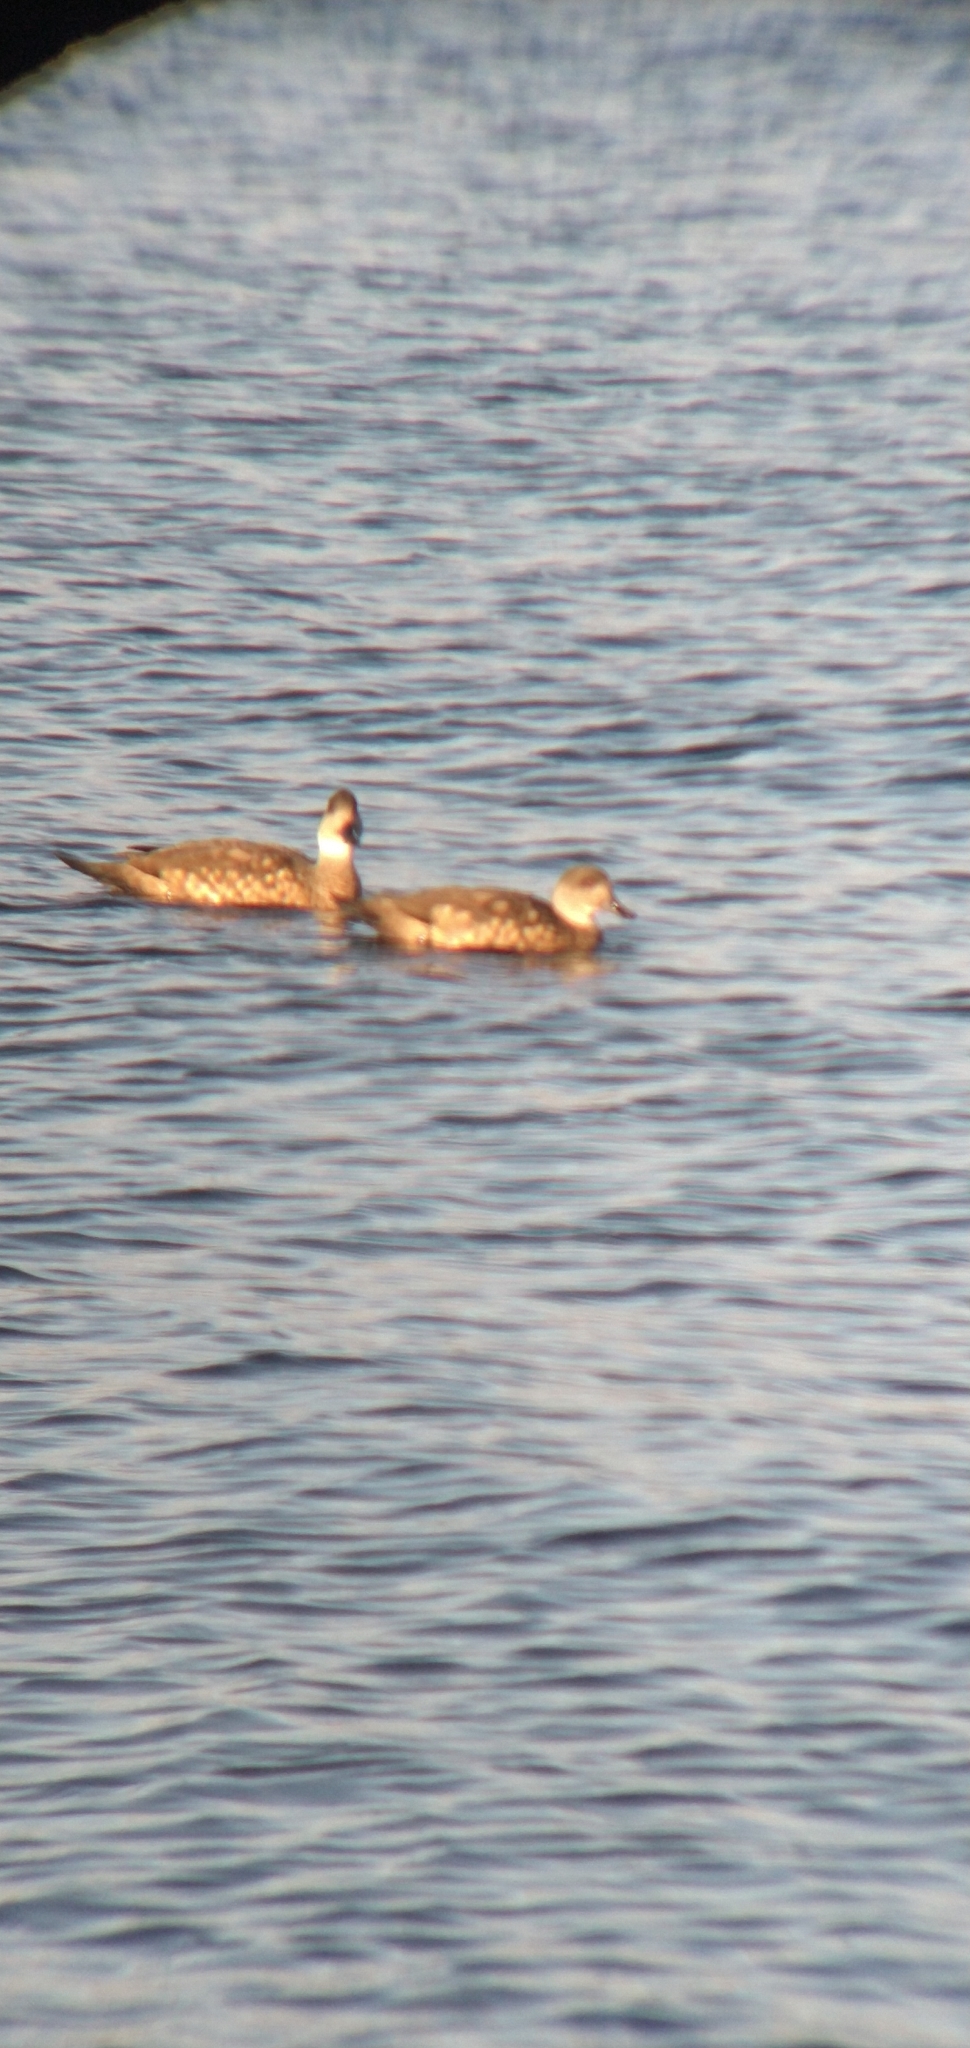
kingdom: Animalia
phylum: Chordata
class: Aves
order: Anseriformes
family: Anatidae
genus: Lophonetta
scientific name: Lophonetta specularioides
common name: Crested duck
